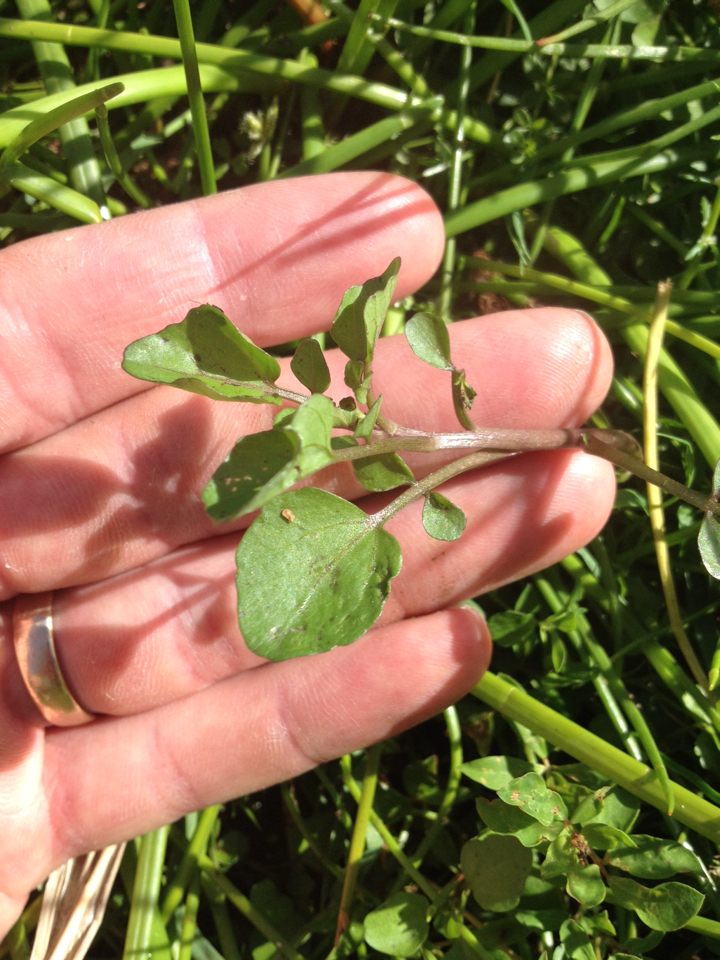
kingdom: Plantae
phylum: Tracheophyta
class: Magnoliopsida
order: Brassicales
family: Brassicaceae
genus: Nasturtium
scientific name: Nasturtium officinale
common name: Watercress
